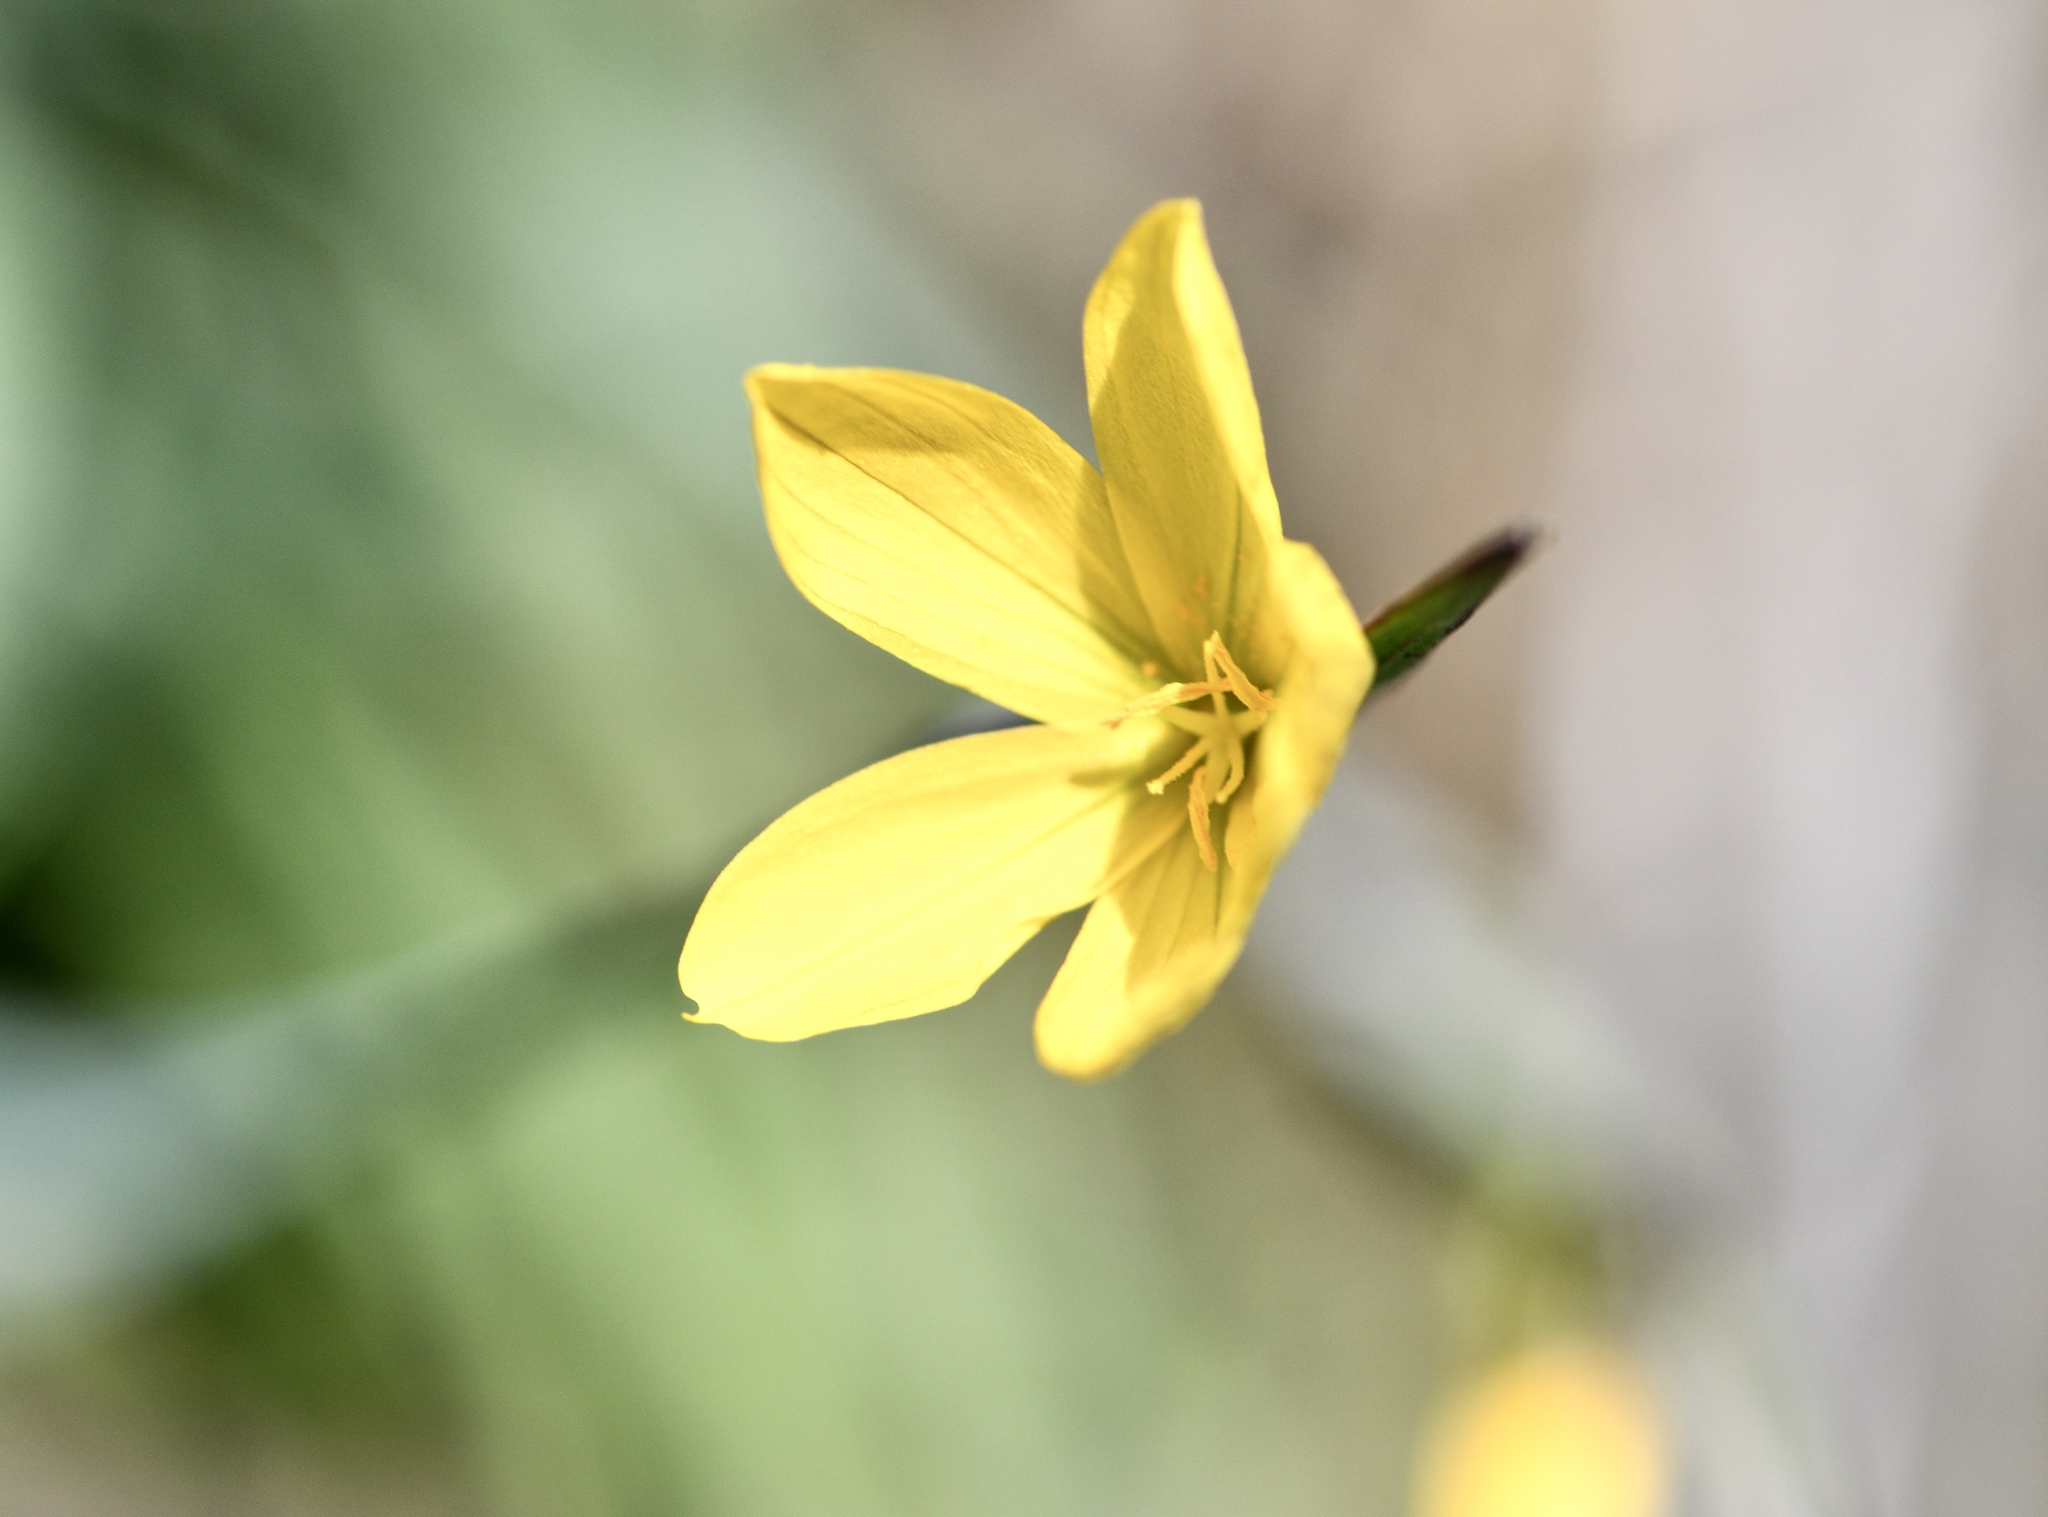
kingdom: Plantae
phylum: Tracheophyta
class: Liliopsida
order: Asparagales
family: Iridaceae
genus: Sisyrinchium
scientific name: Sisyrinchium californicum
